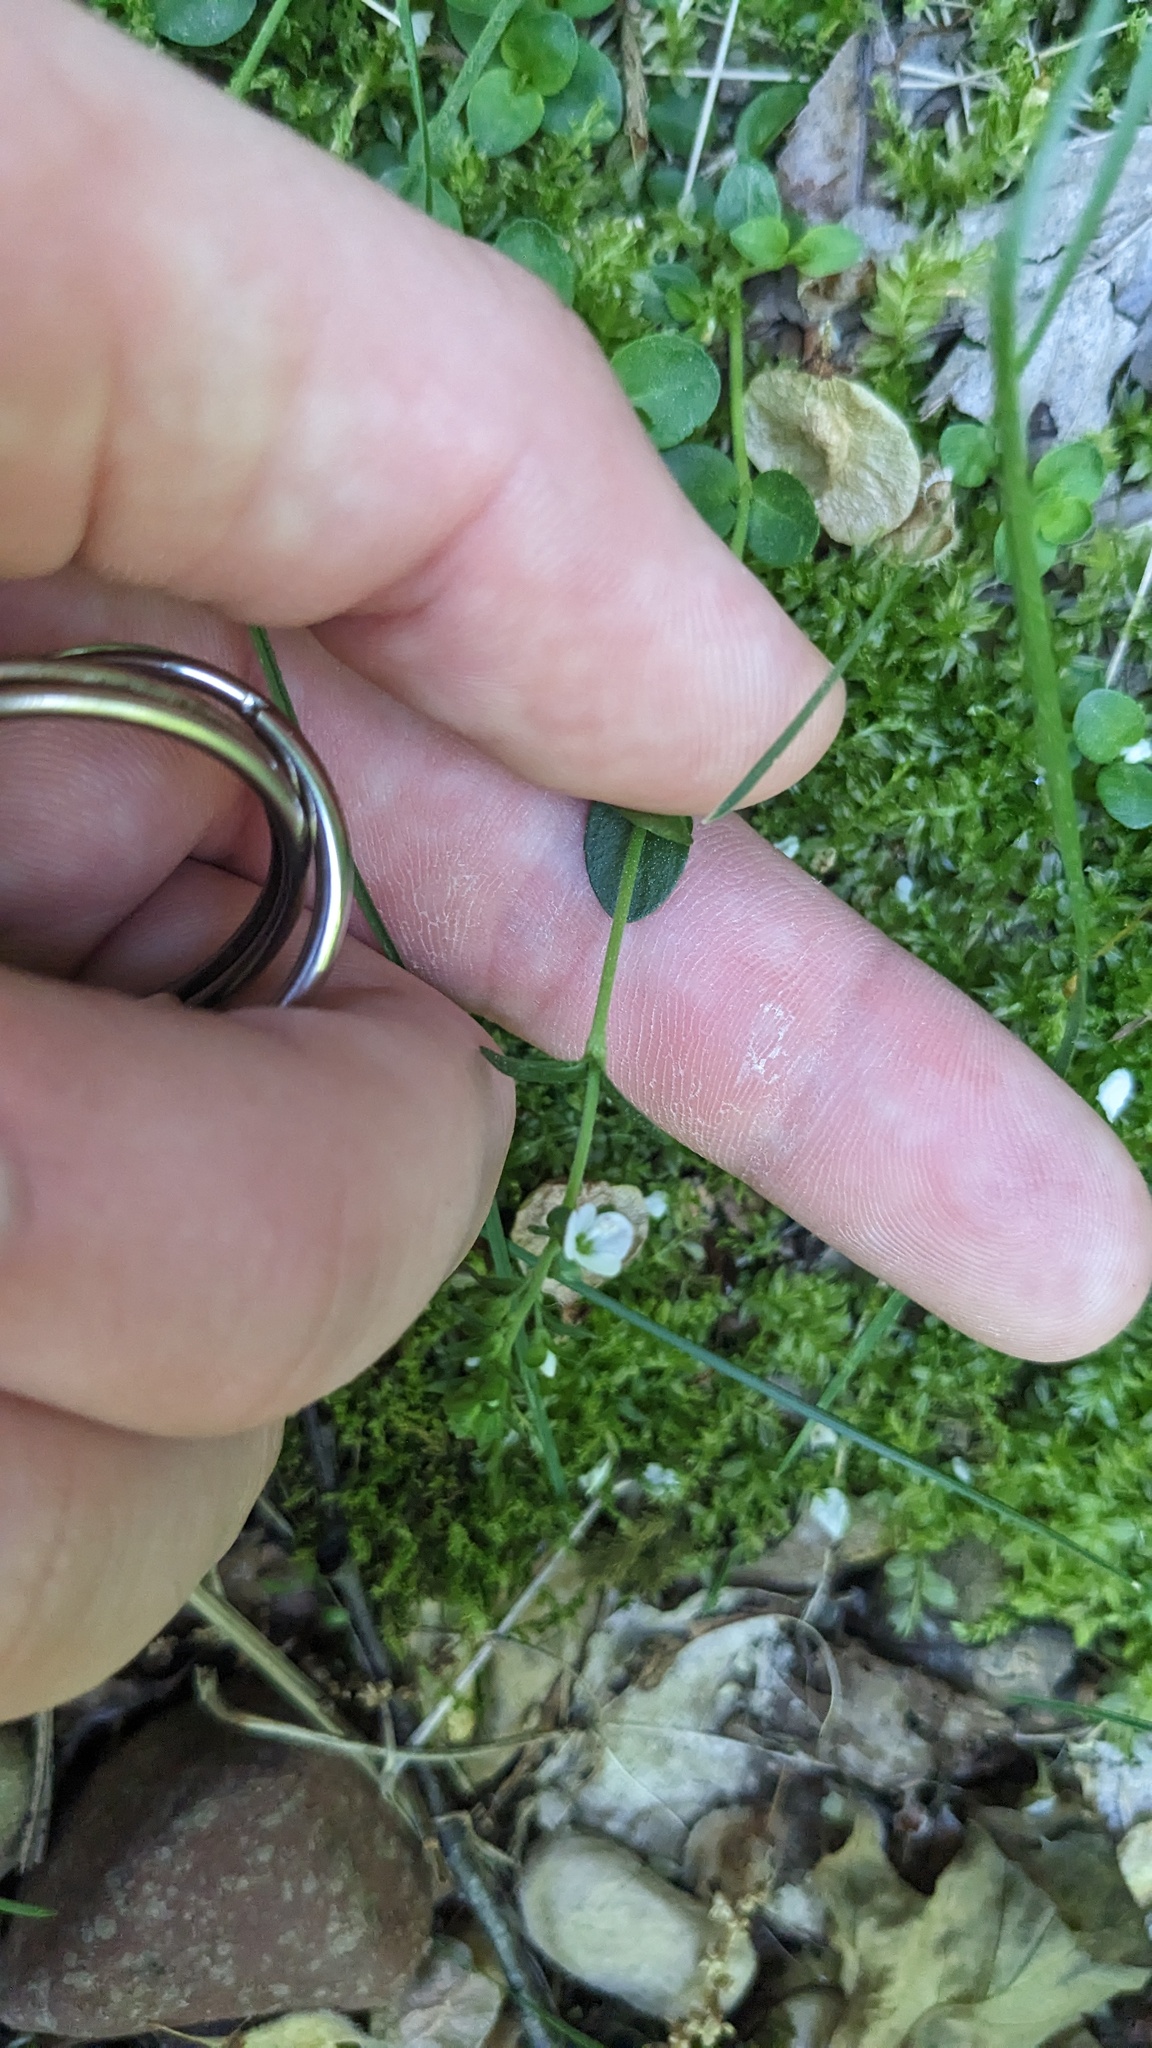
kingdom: Plantae
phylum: Tracheophyta
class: Magnoliopsida
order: Lamiales
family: Plantaginaceae
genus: Veronica
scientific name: Veronica serpyllifolia
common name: Thyme-leaved speedwell
